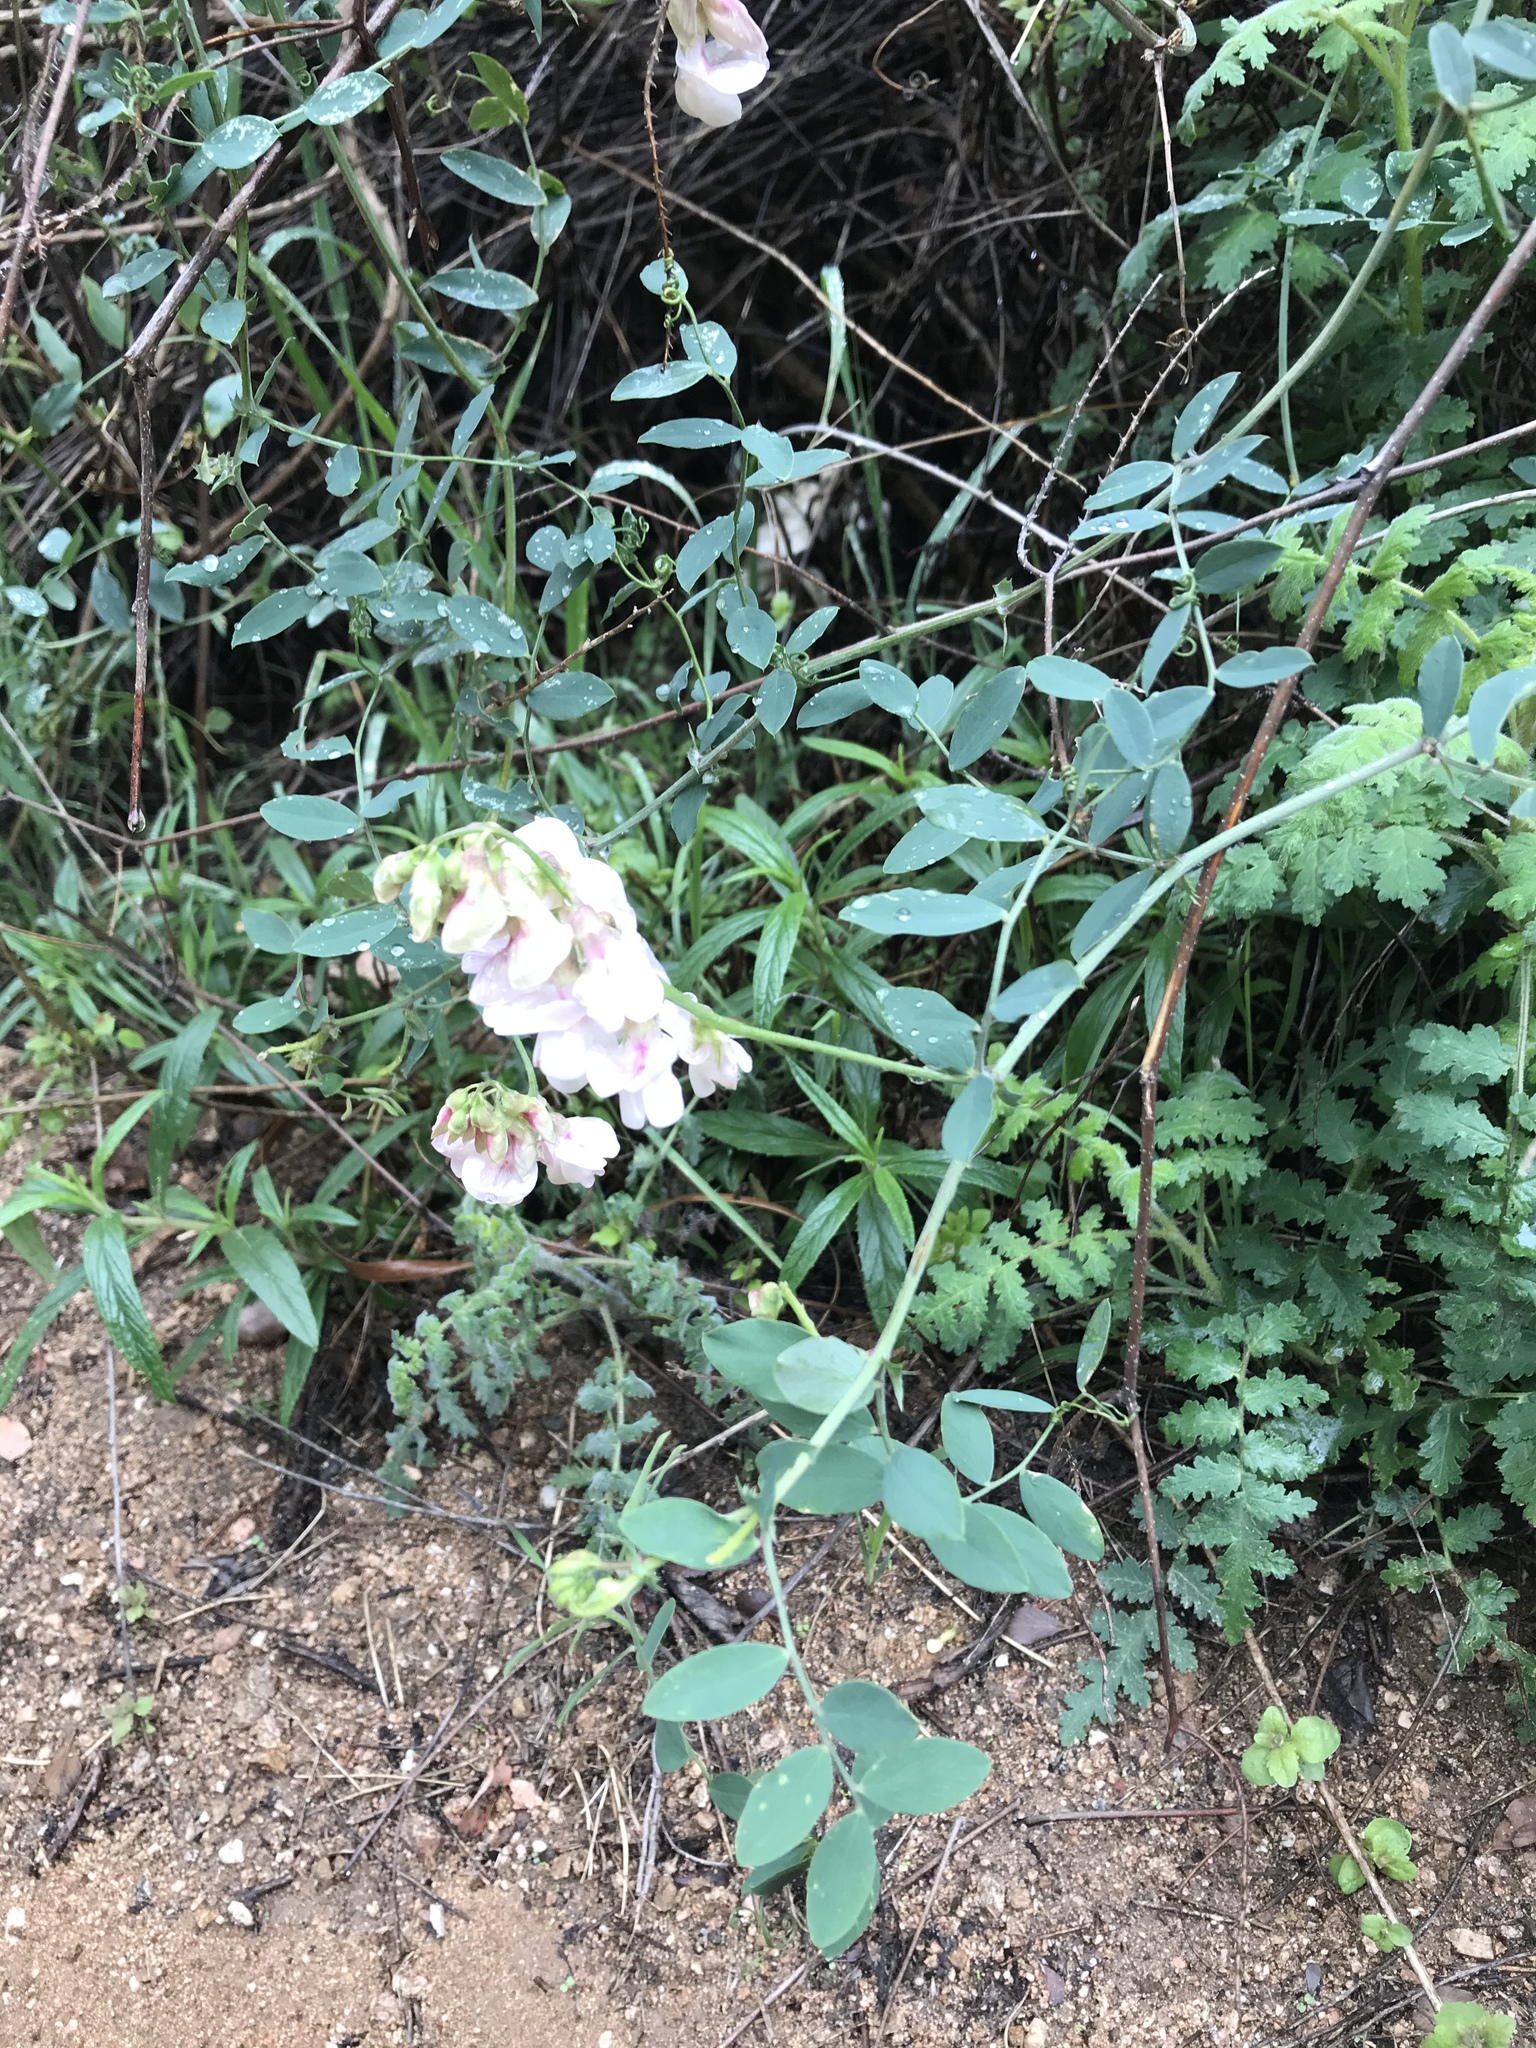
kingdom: Plantae
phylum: Tracheophyta
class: Magnoliopsida
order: Fabales
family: Fabaceae
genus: Lathyrus
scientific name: Lathyrus vestitus
